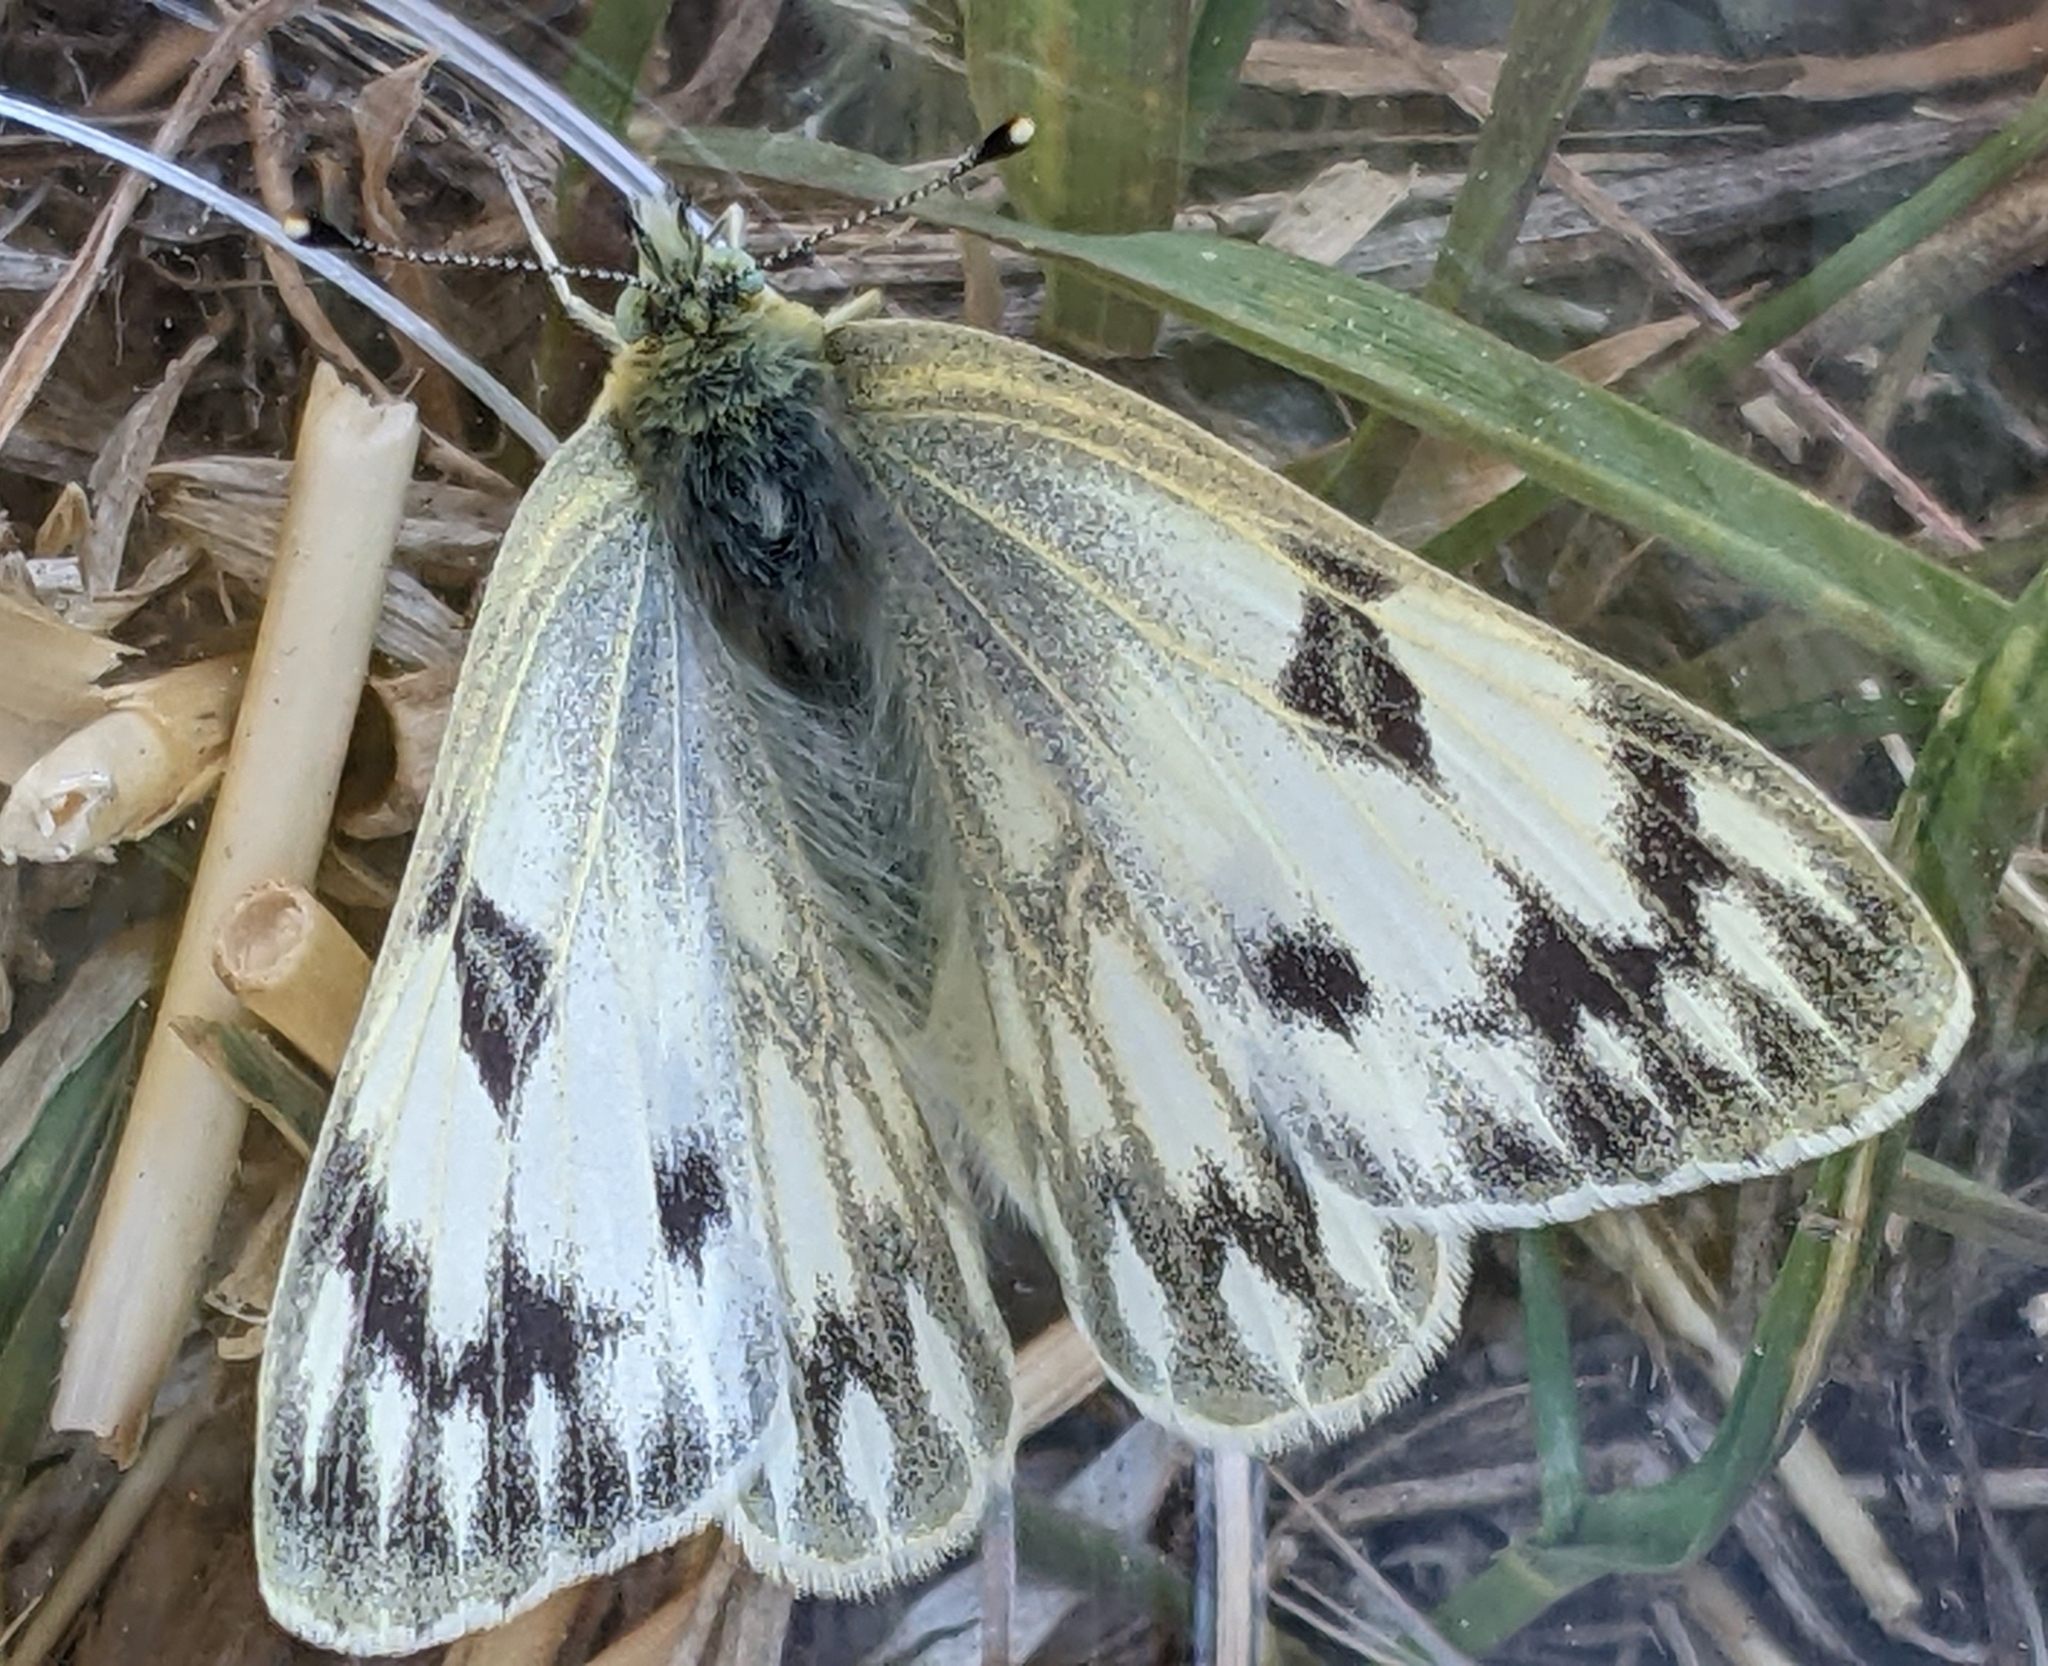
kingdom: Animalia
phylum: Arthropoda
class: Insecta
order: Lepidoptera
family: Pieridae
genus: Pontia
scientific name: Pontia occidentalis
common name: Western white
